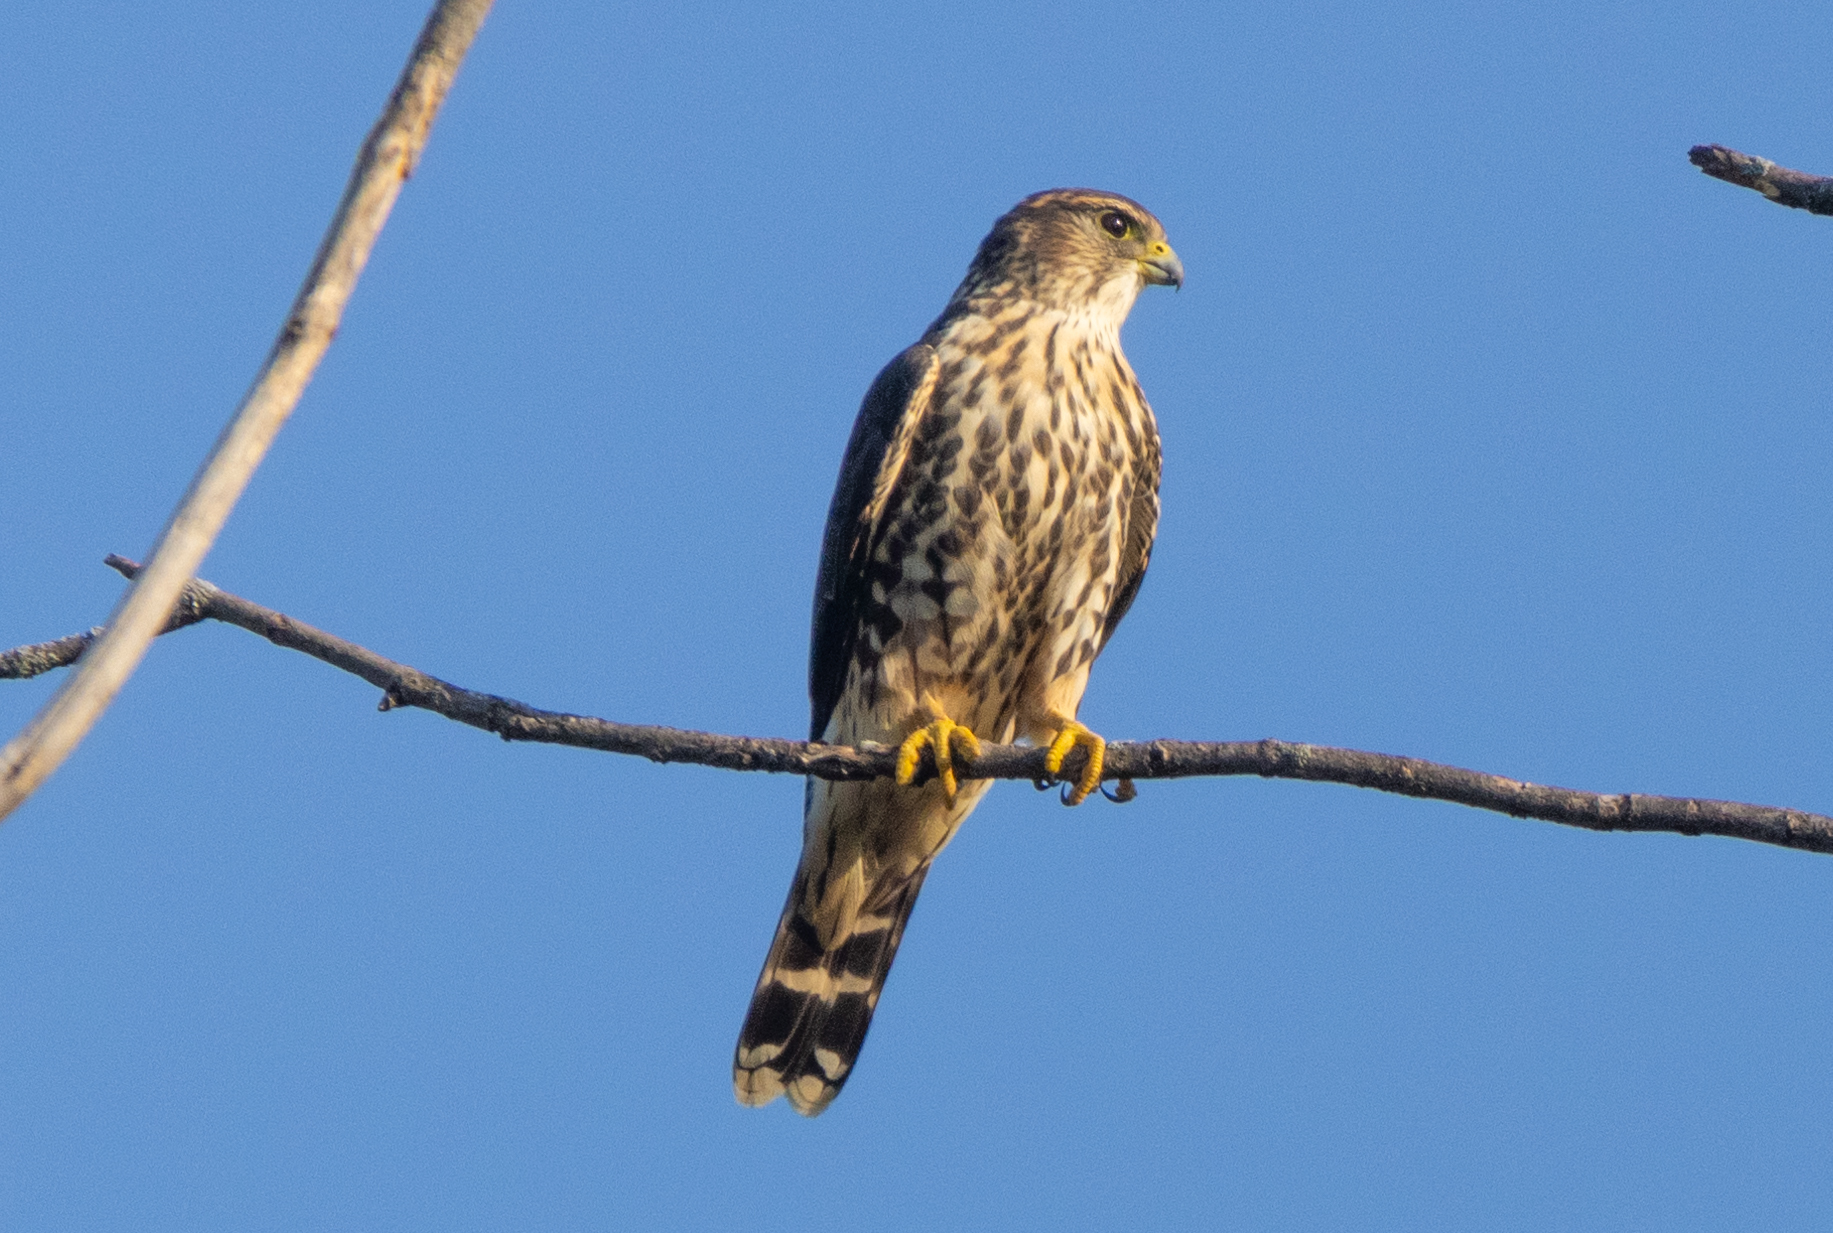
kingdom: Animalia
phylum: Chordata
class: Aves
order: Falconiformes
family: Falconidae
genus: Falco
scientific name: Falco columbarius
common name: Merlin
